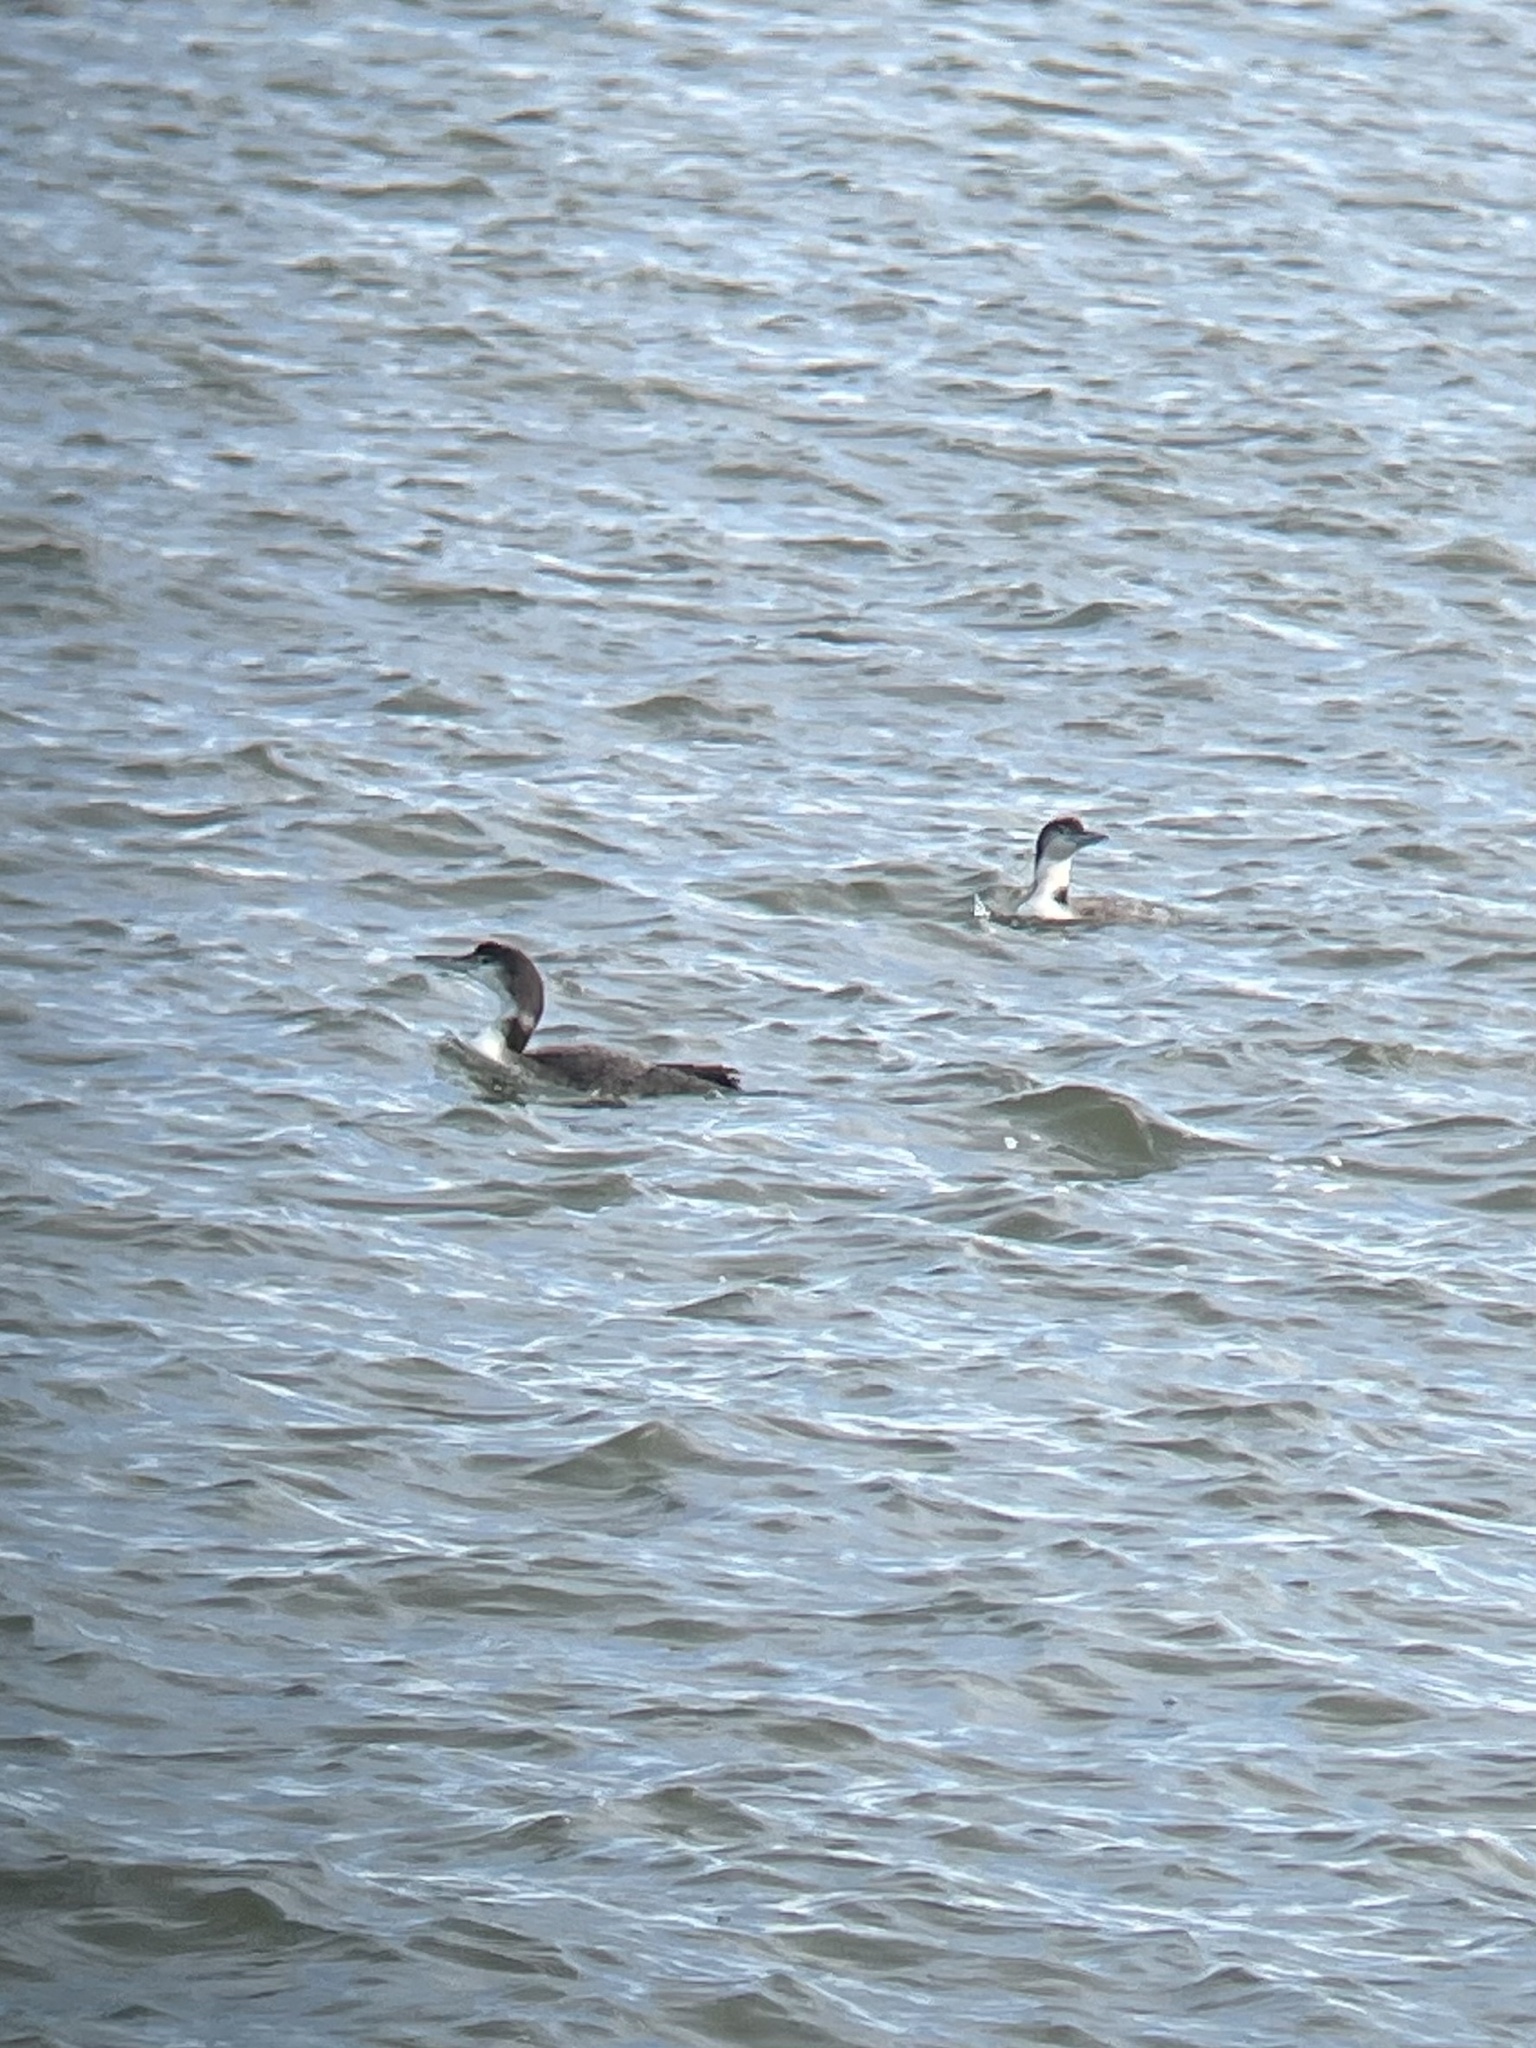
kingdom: Animalia
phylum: Chordata
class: Aves
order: Gaviiformes
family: Gaviidae
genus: Gavia
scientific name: Gavia immer
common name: Common loon
